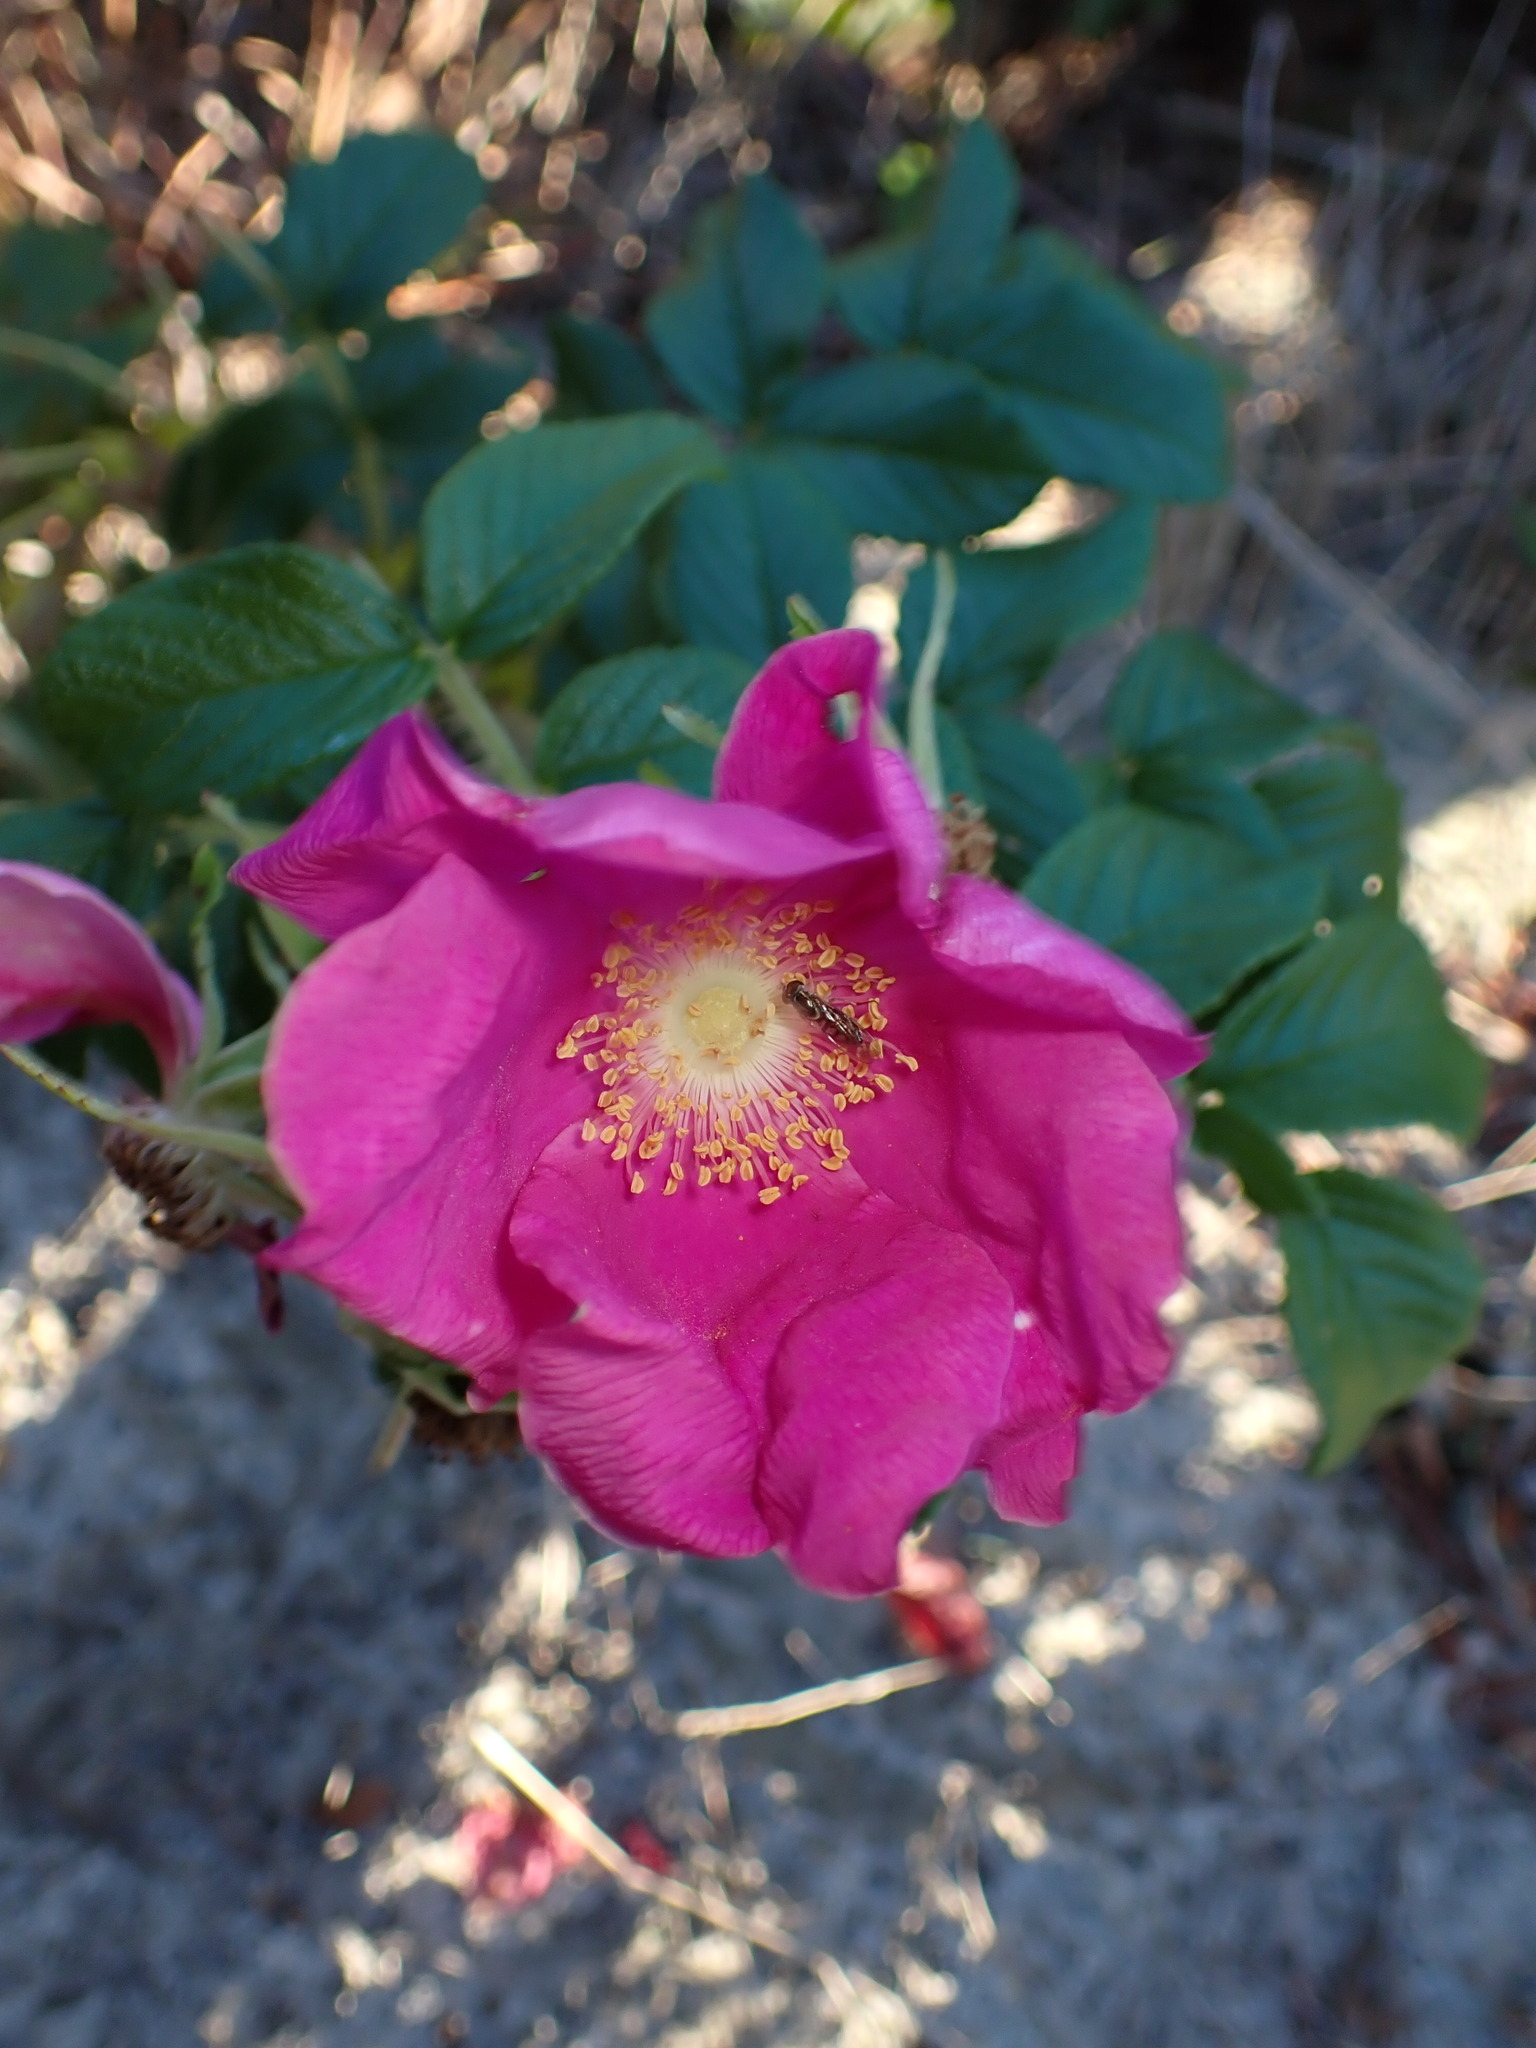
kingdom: Plantae
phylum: Tracheophyta
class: Magnoliopsida
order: Rosales
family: Rosaceae
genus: Rosa
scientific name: Rosa rugosa
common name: Japanese rose
